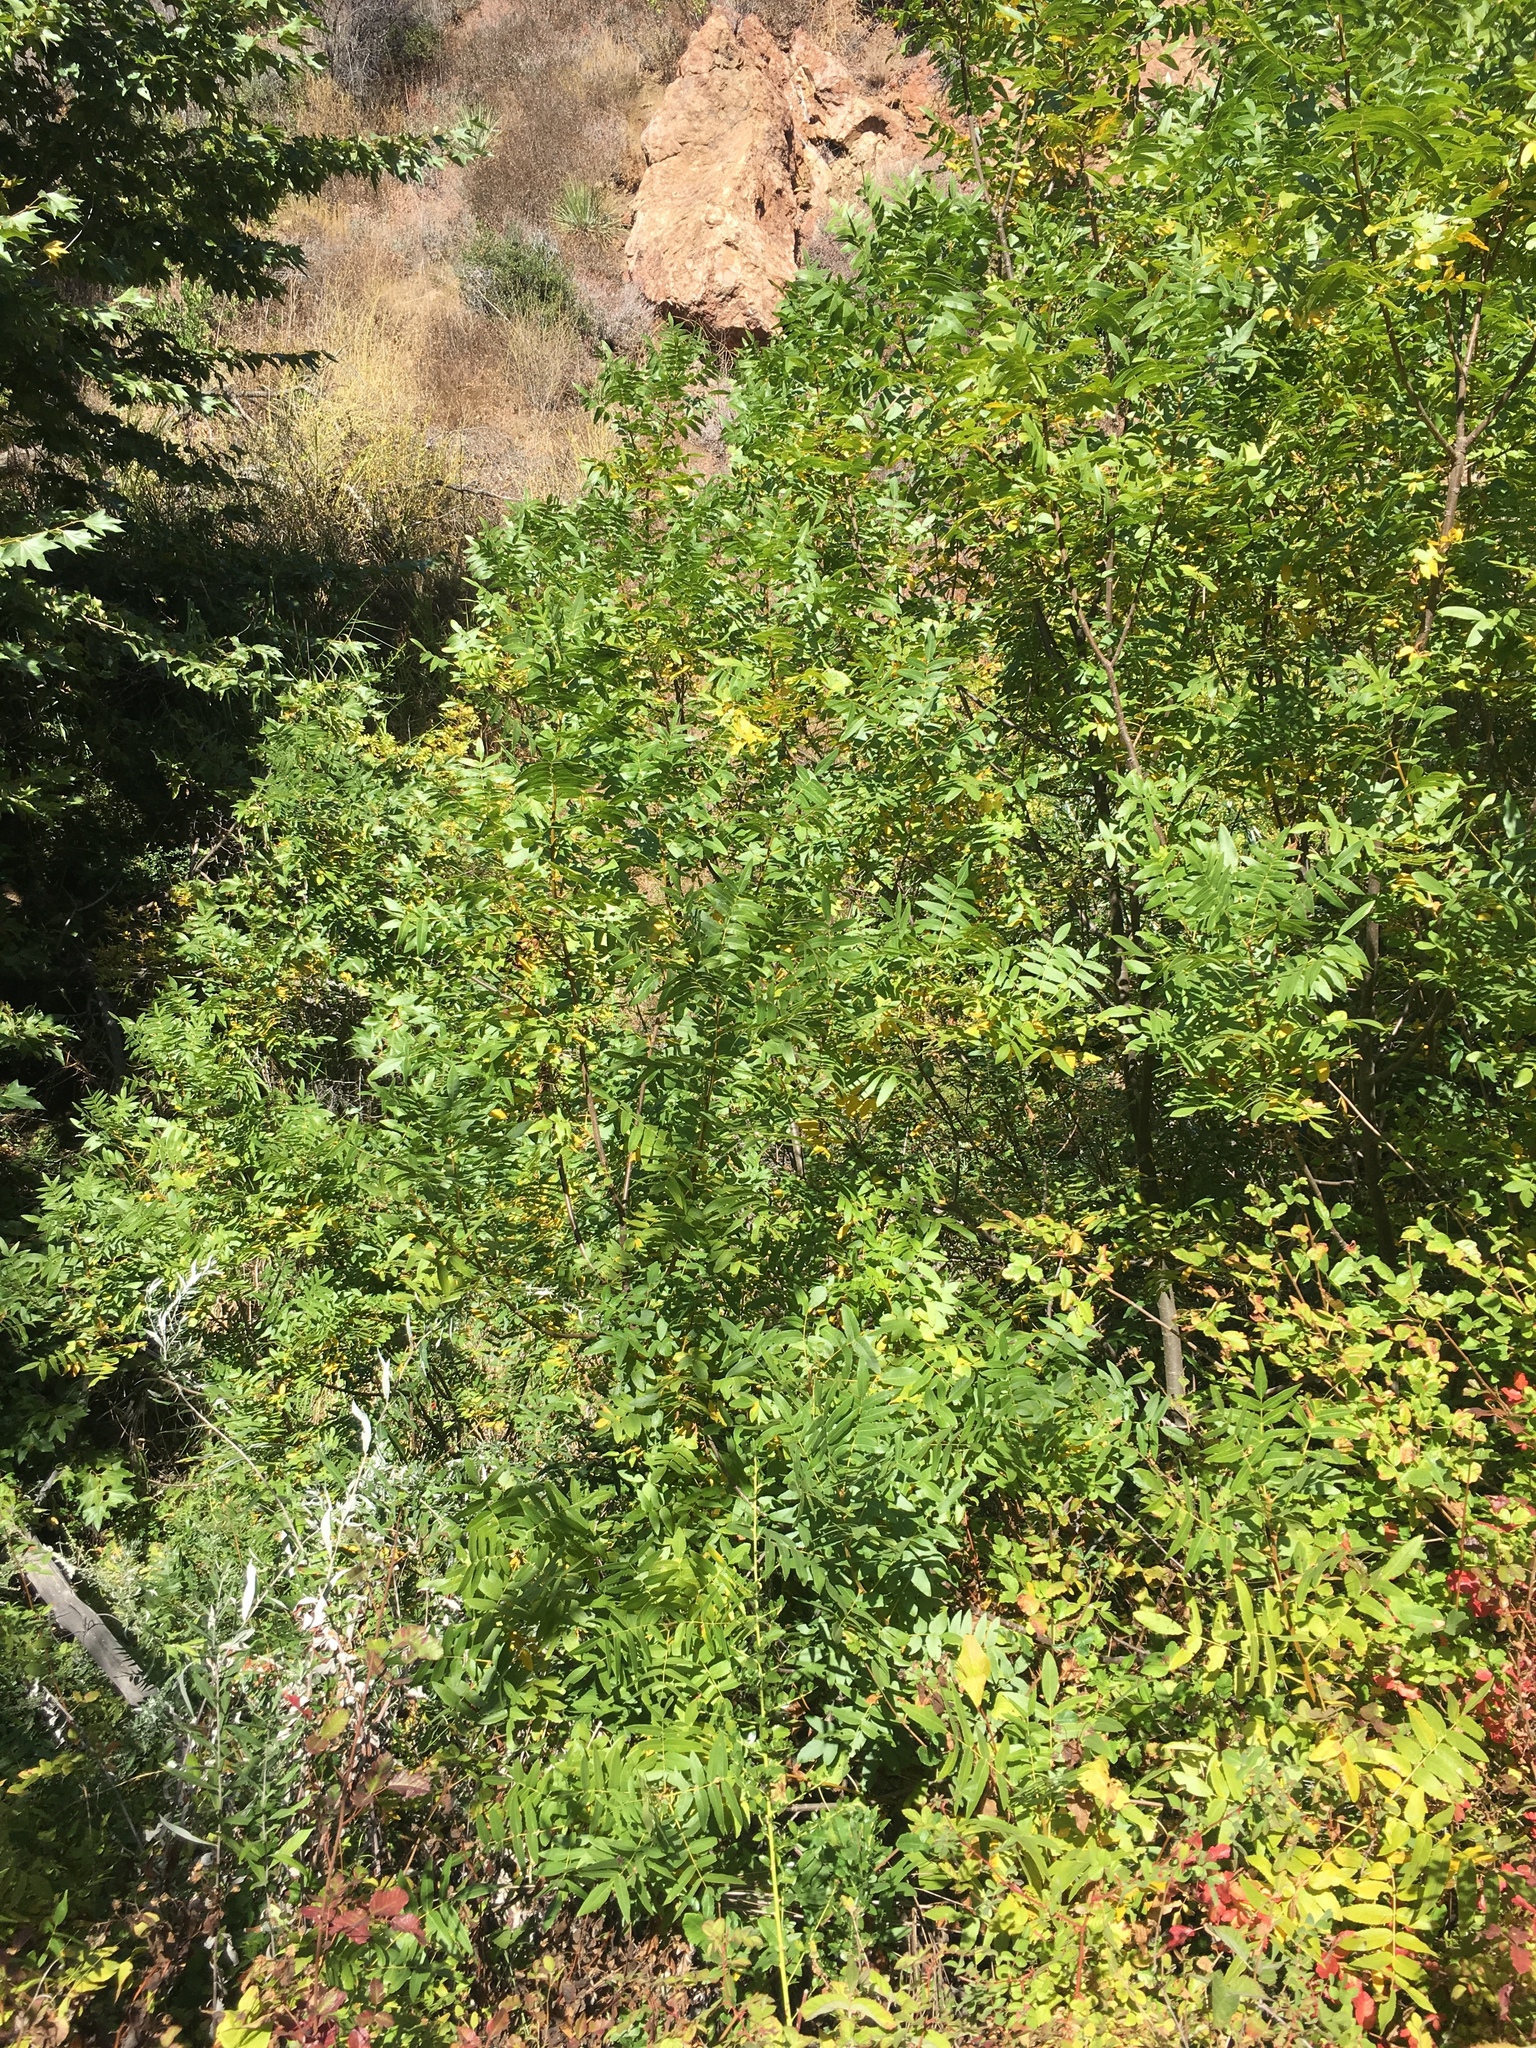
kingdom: Plantae
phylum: Tracheophyta
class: Magnoliopsida
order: Fagales
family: Juglandaceae
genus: Juglans
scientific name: Juglans californica
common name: Southern california black walnut
